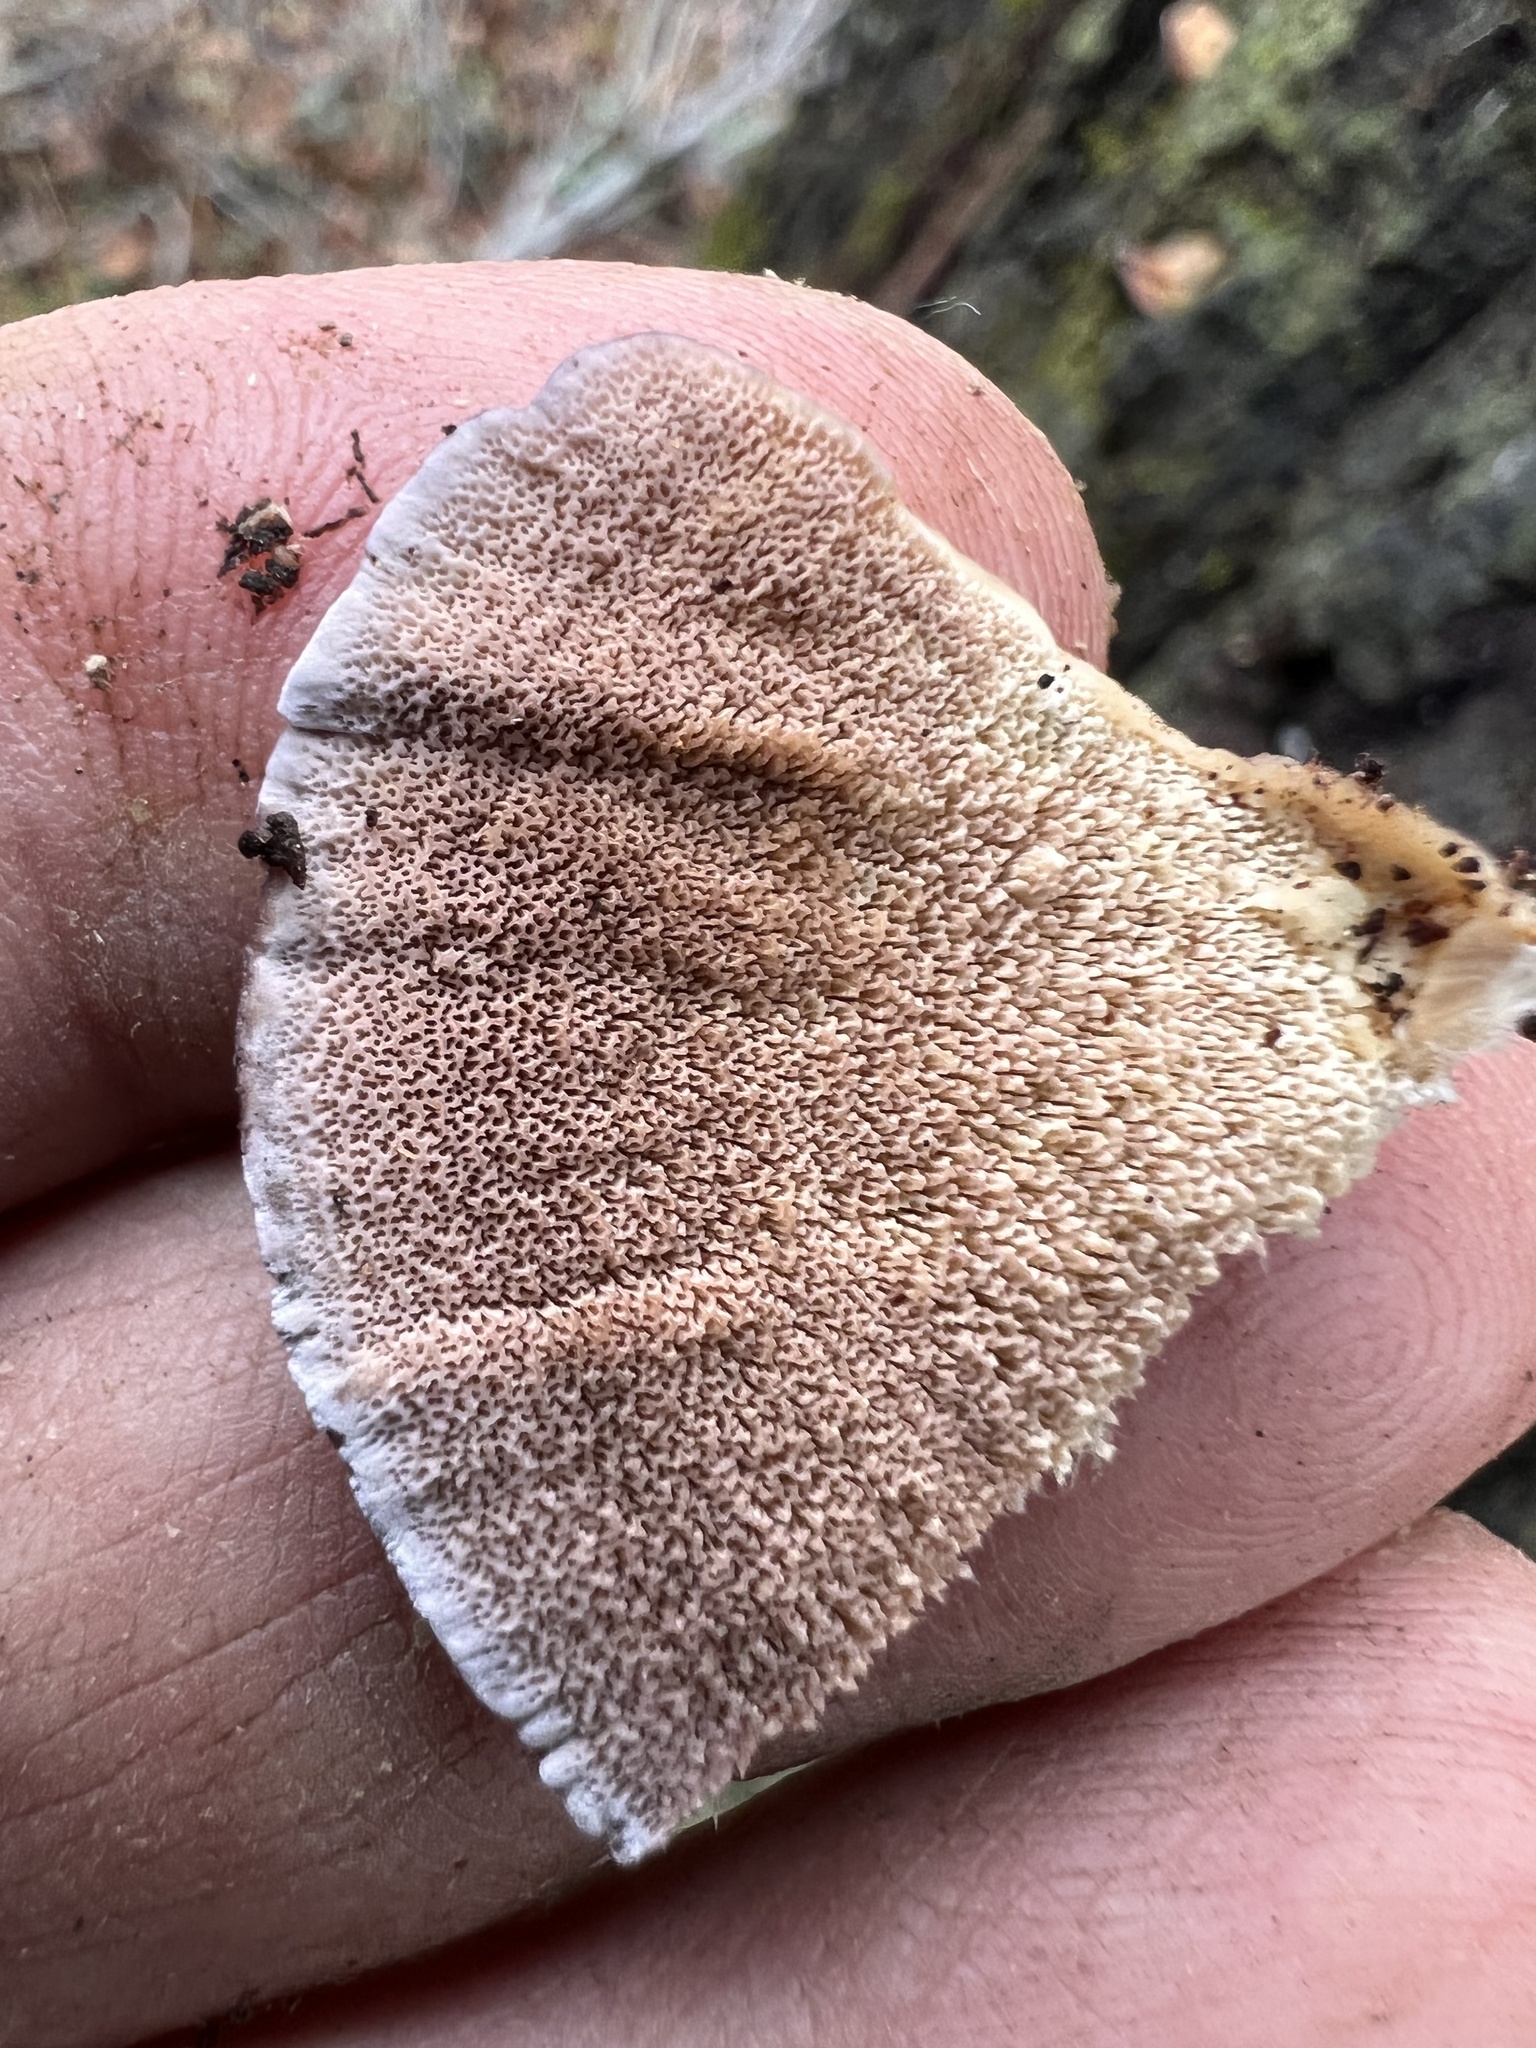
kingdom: Fungi
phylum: Basidiomycota
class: Agaricomycetes
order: Hymenochaetales
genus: Trichaptum
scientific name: Trichaptum biforme
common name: Violet-toothed polypore
